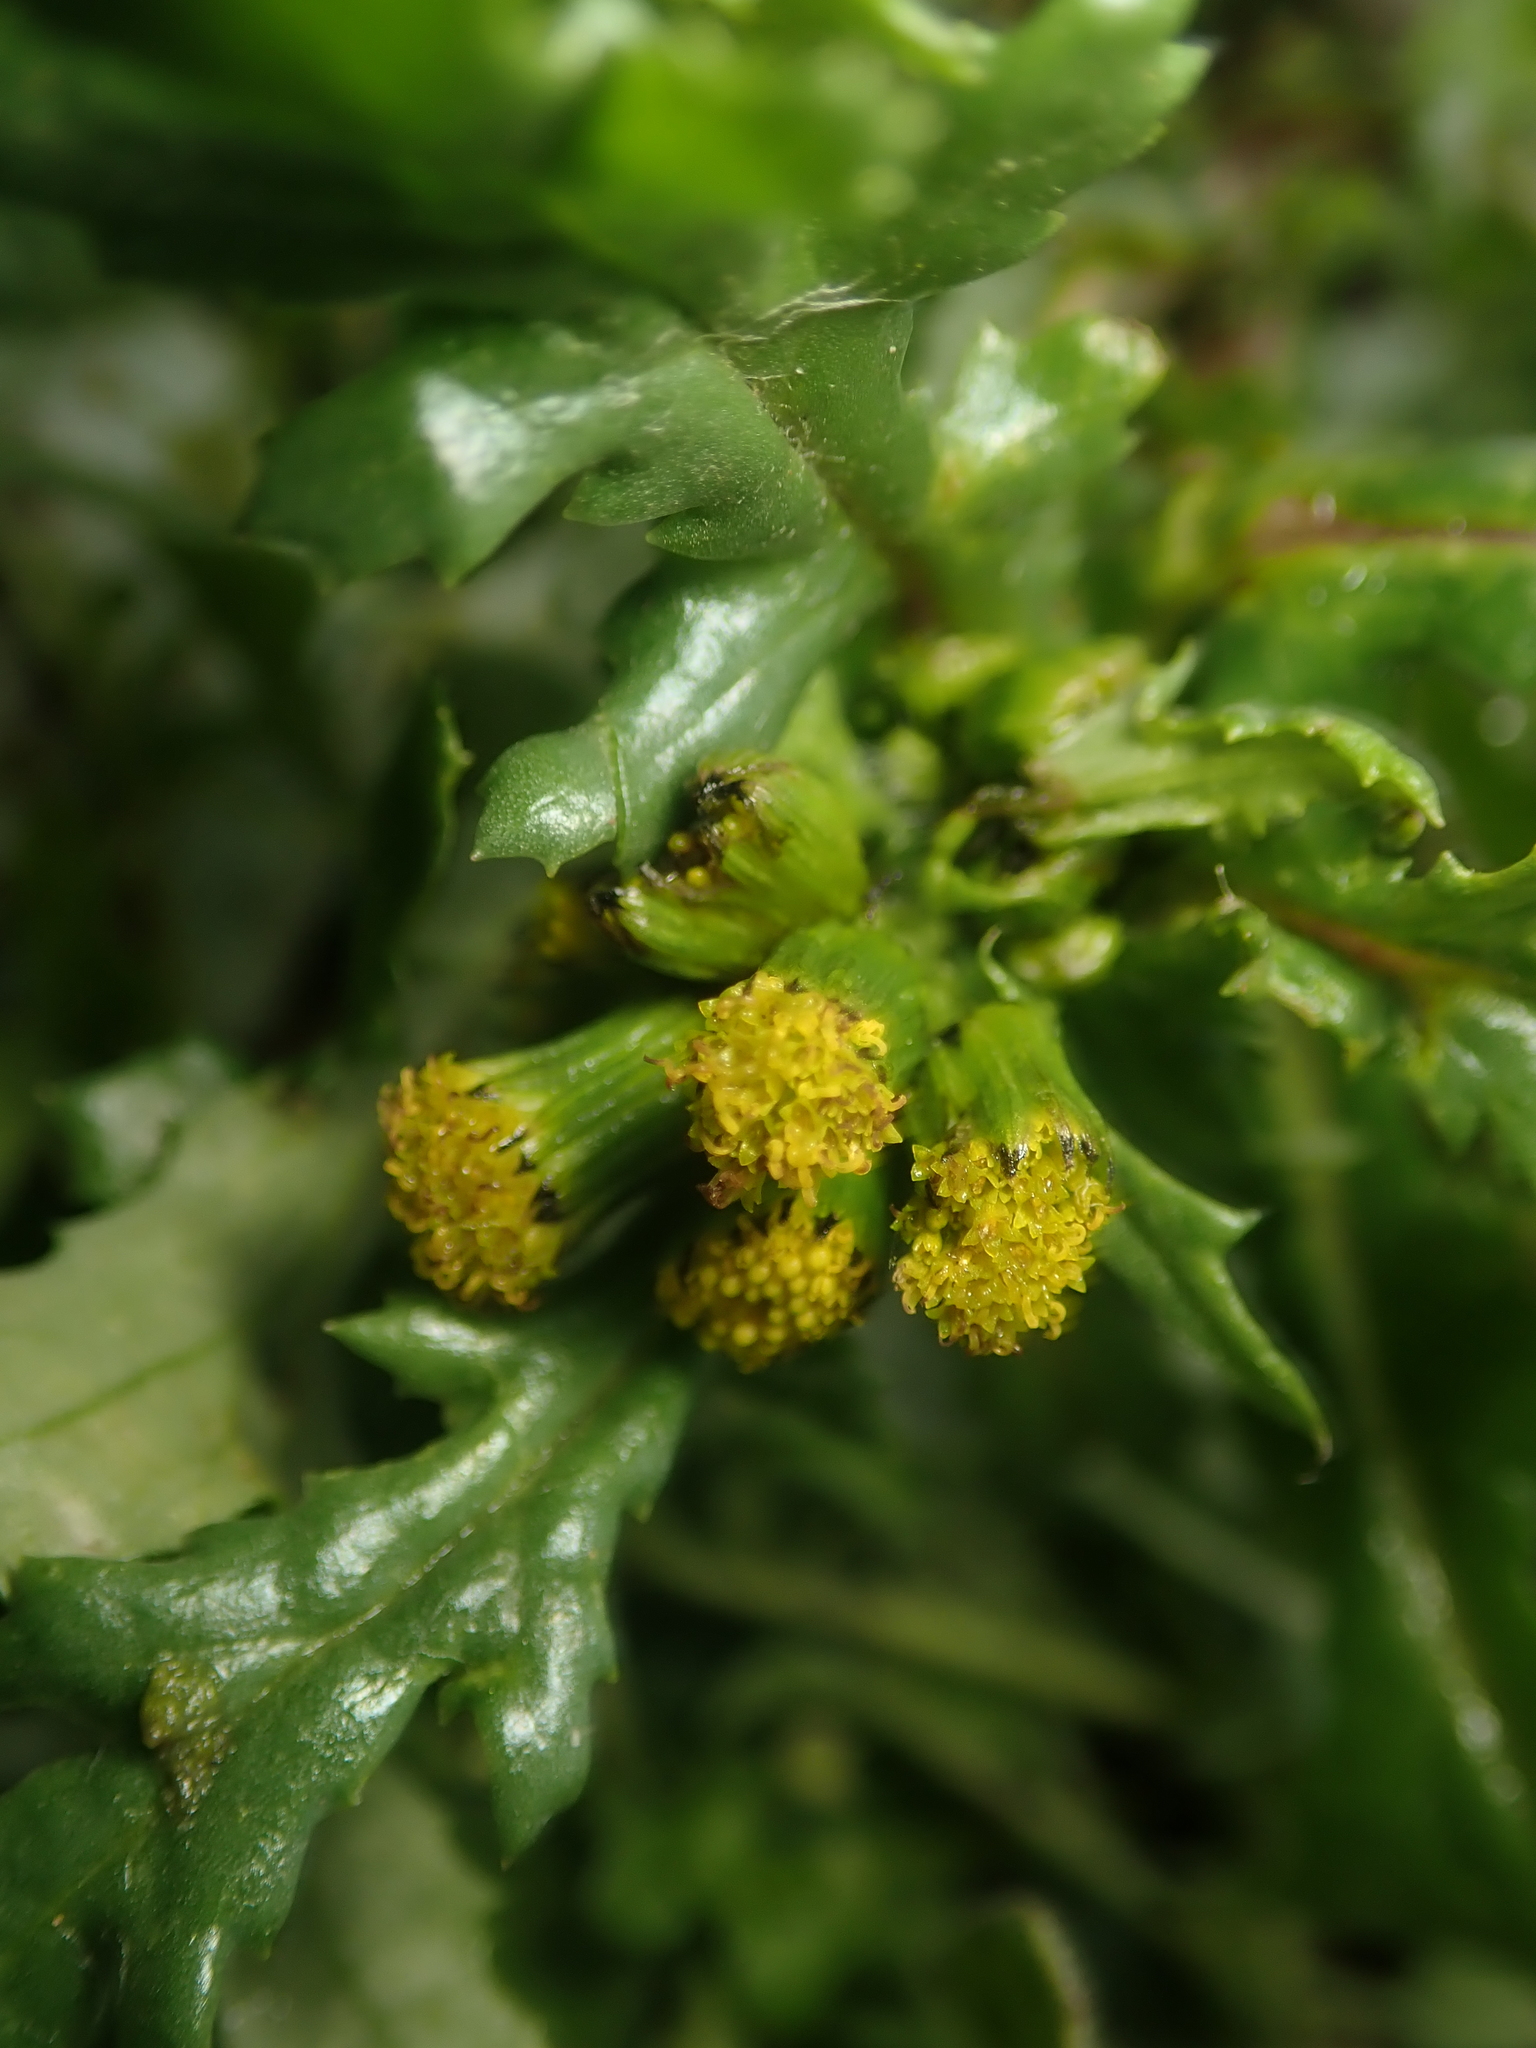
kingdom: Plantae
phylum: Tracheophyta
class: Magnoliopsida
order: Asterales
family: Asteraceae
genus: Senecio
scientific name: Senecio vulgaris
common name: Old-man-in-the-spring
